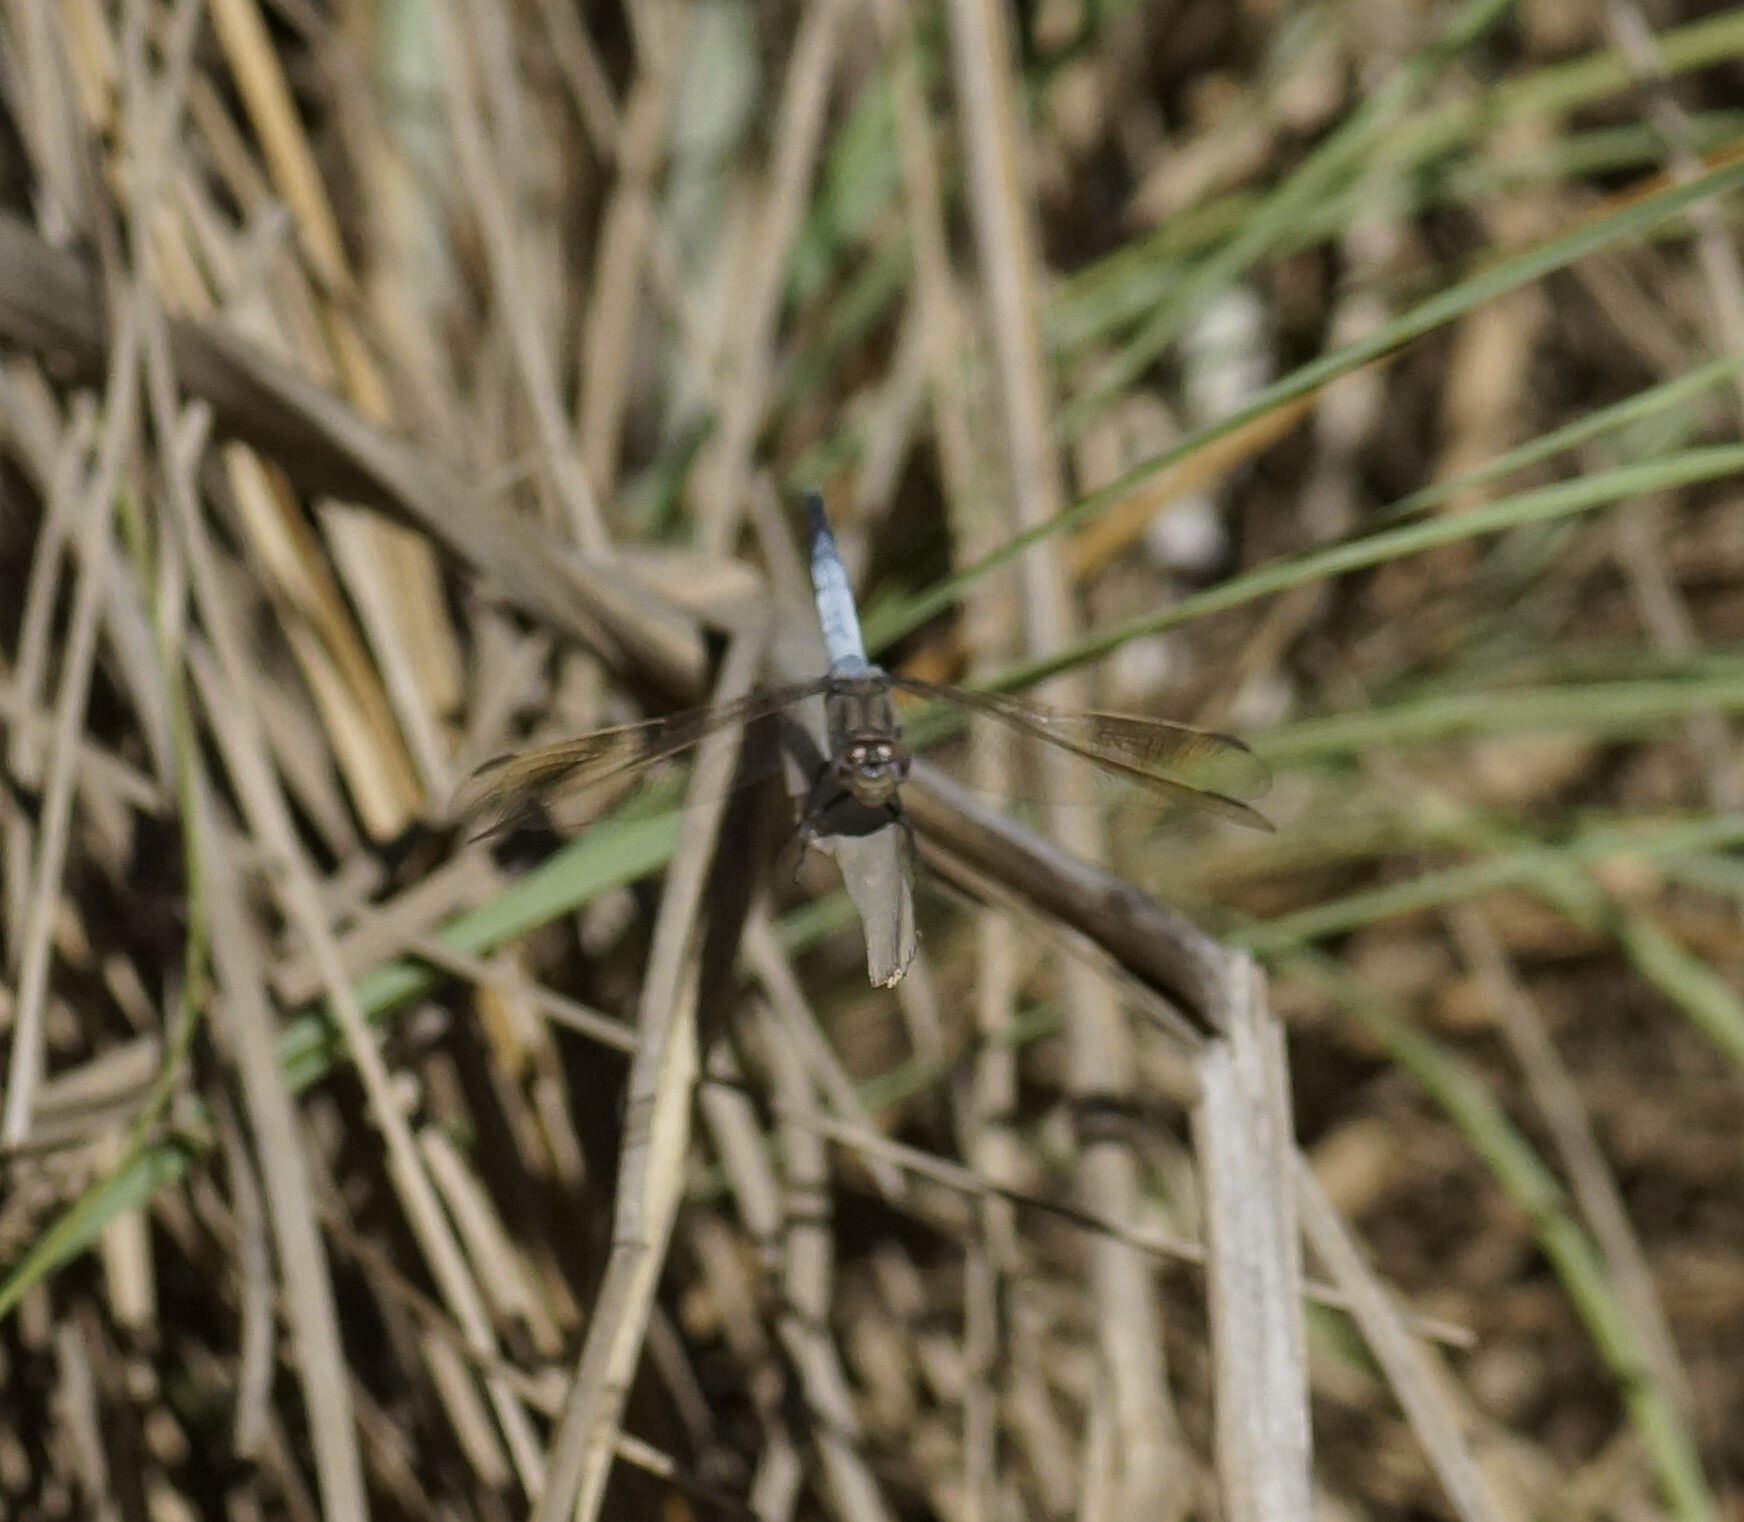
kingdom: Animalia
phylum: Arthropoda
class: Insecta
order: Odonata
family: Libellulidae
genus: Orthetrum
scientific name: Orthetrum caledonicum
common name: Blue skimmer
